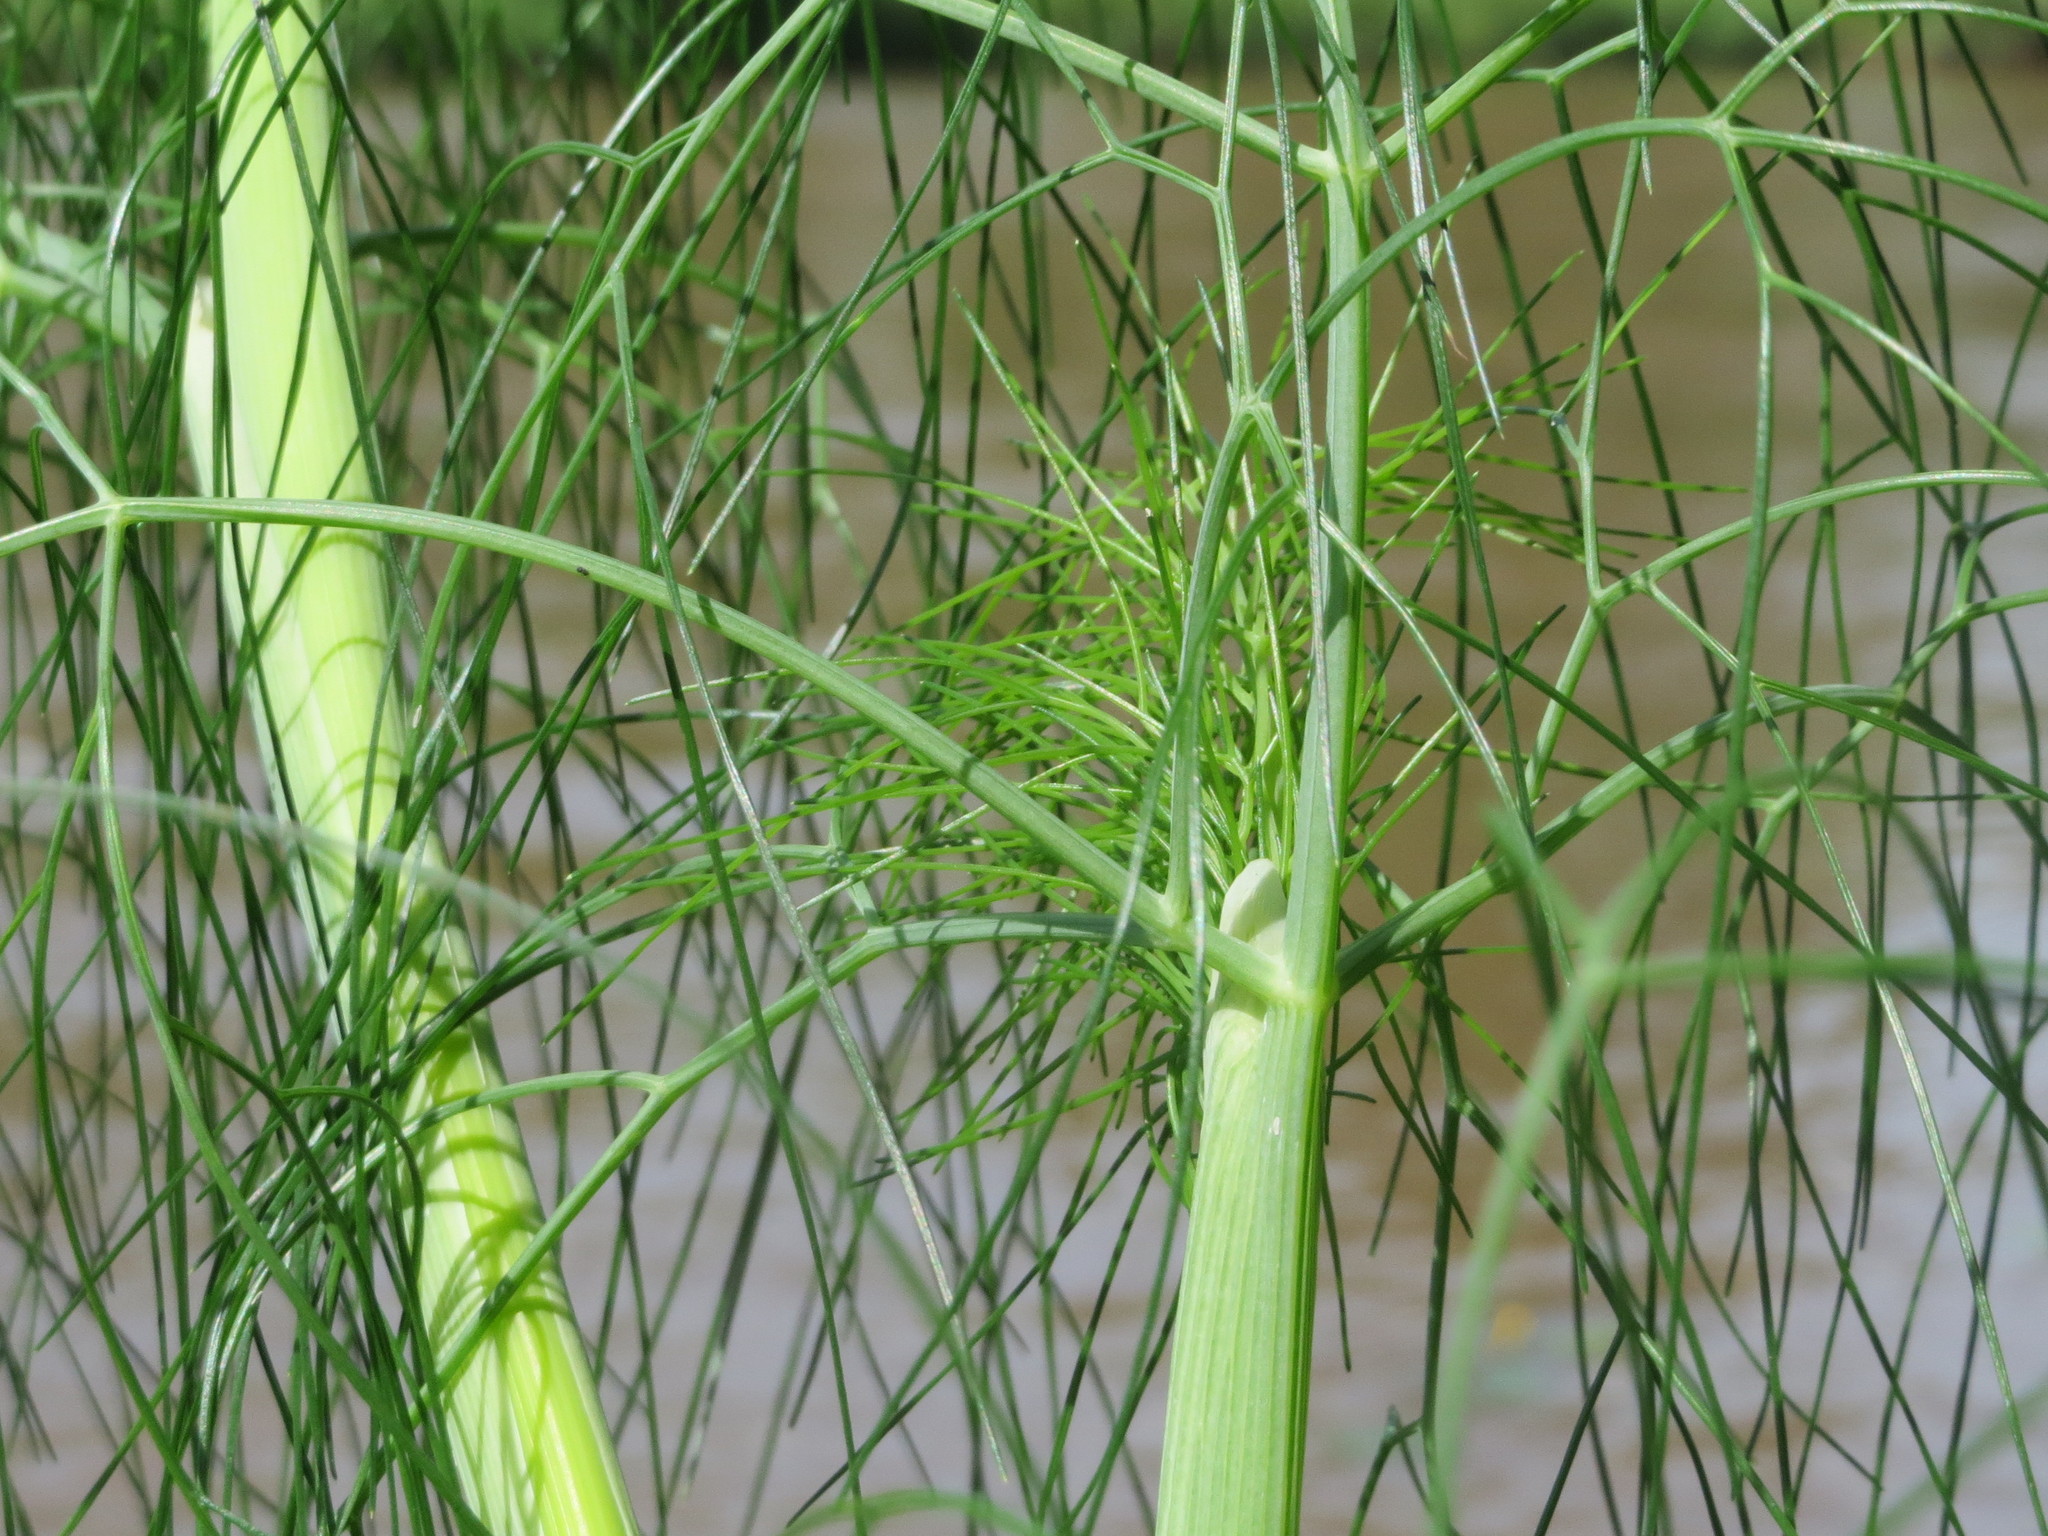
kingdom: Plantae
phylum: Tracheophyta
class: Magnoliopsida
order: Apiales
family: Apiaceae
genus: Anethum
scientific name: Anethum graveolens
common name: Dill
